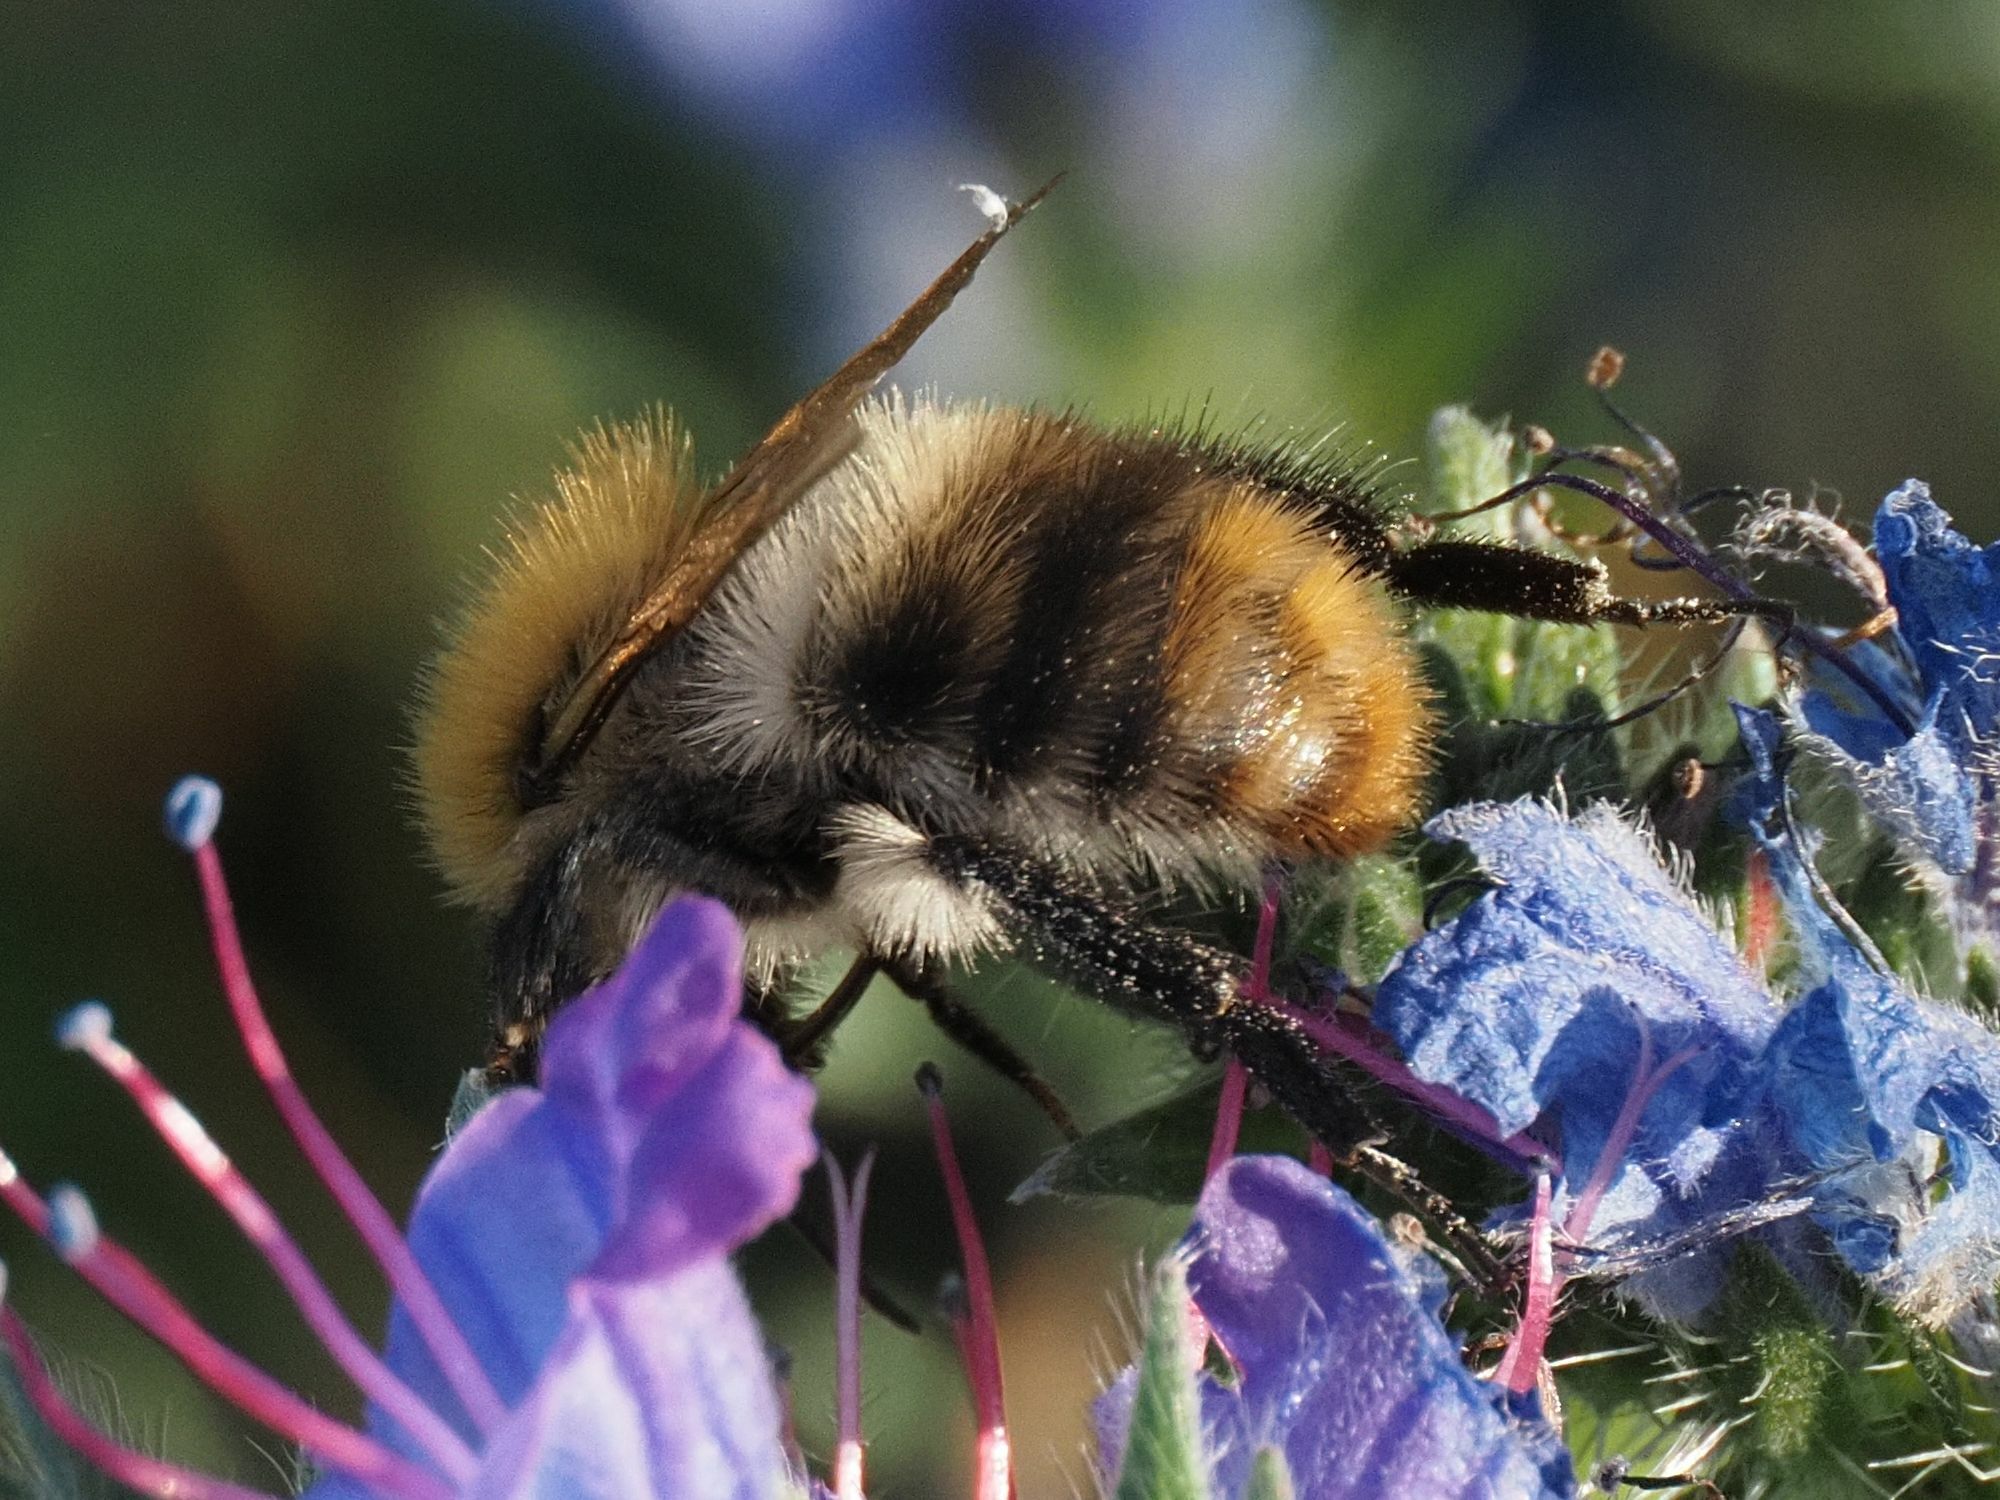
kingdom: Animalia
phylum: Arthropoda
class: Insecta
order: Hymenoptera
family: Apidae
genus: Bombus
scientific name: Bombus pascuorum
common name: Common carder bee
